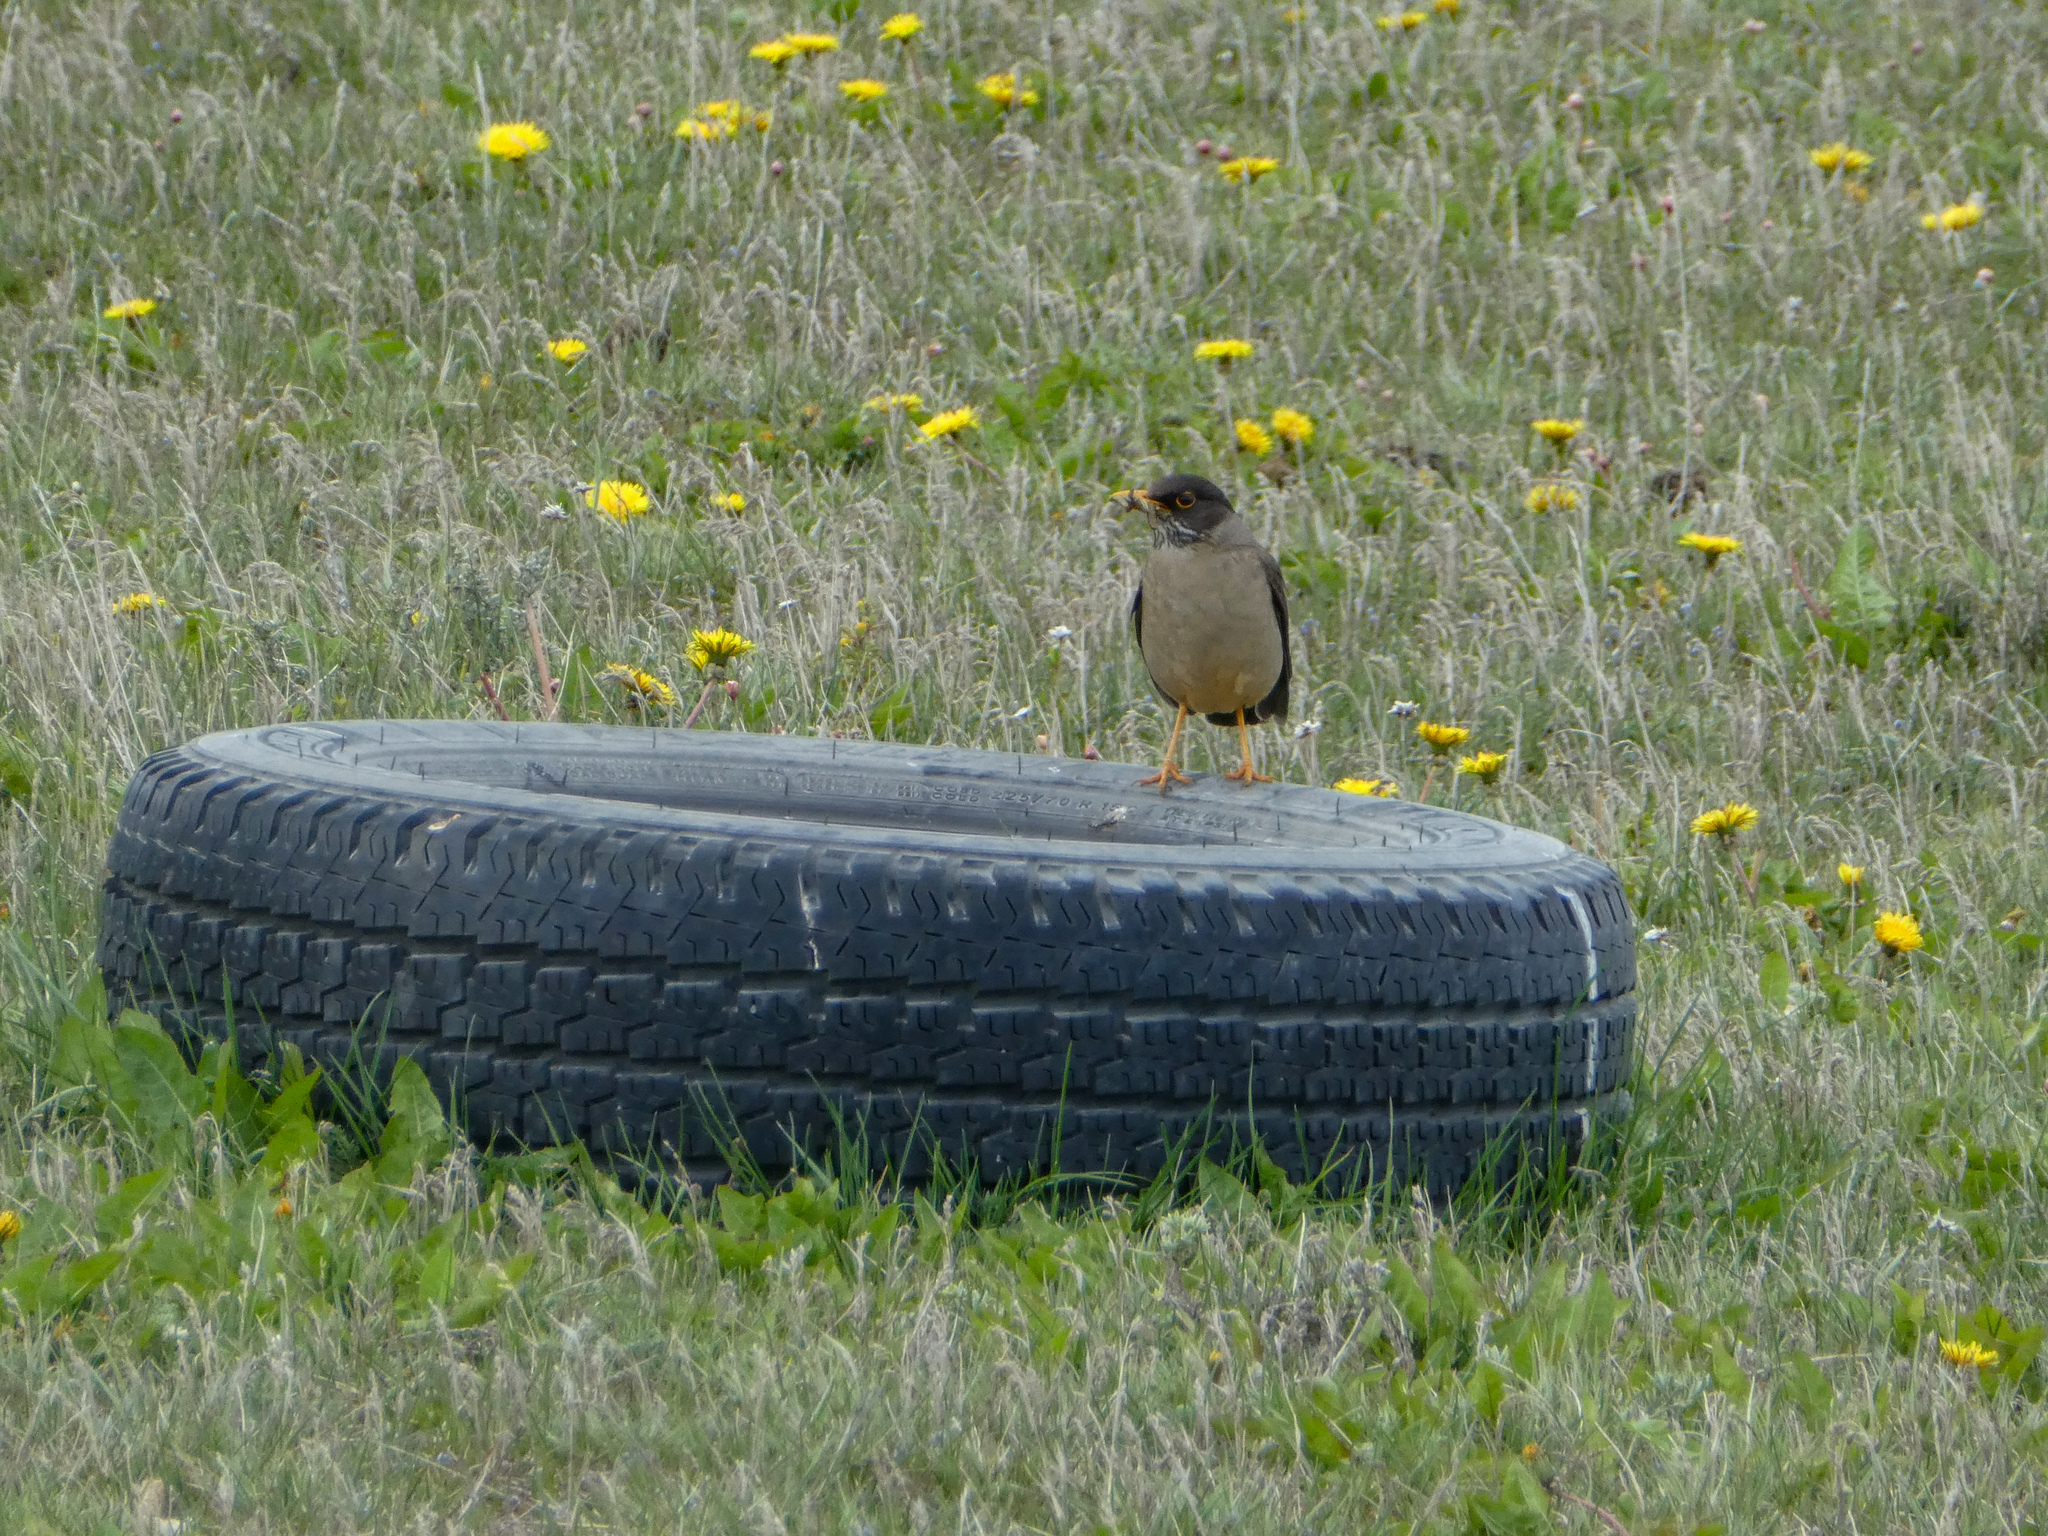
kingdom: Animalia
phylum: Chordata
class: Aves
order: Passeriformes
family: Turdidae
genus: Turdus
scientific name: Turdus falcklandii
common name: Austral thrush
